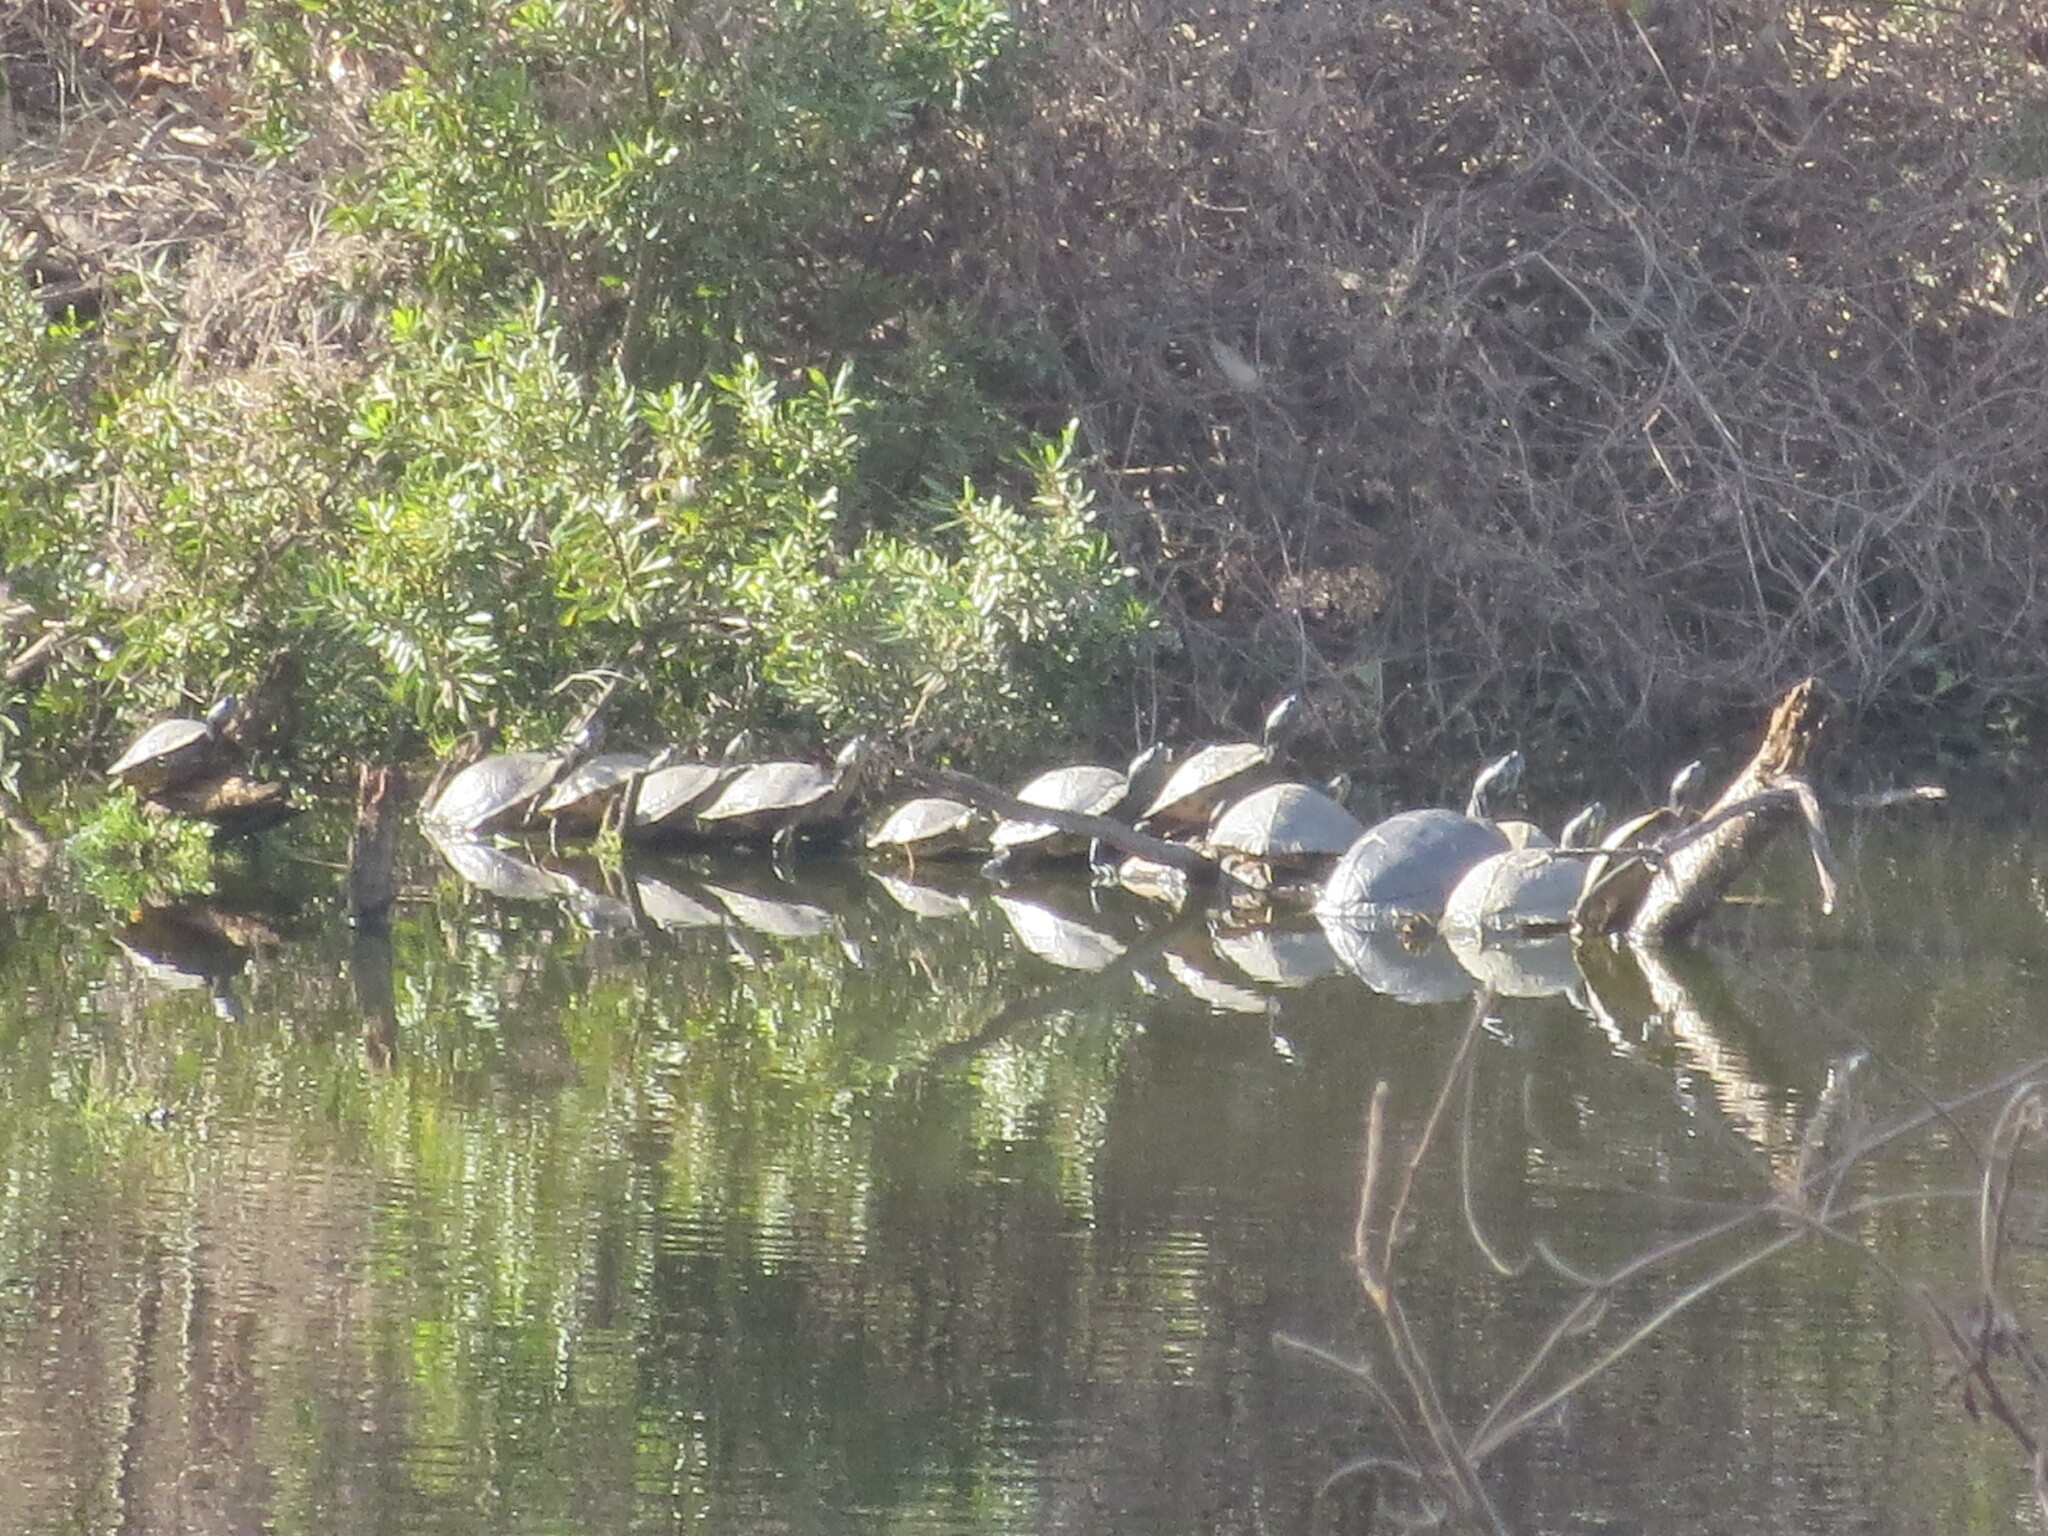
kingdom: Animalia
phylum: Chordata
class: Testudines
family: Emydidae
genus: Trachemys
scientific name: Trachemys scripta
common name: Slider
